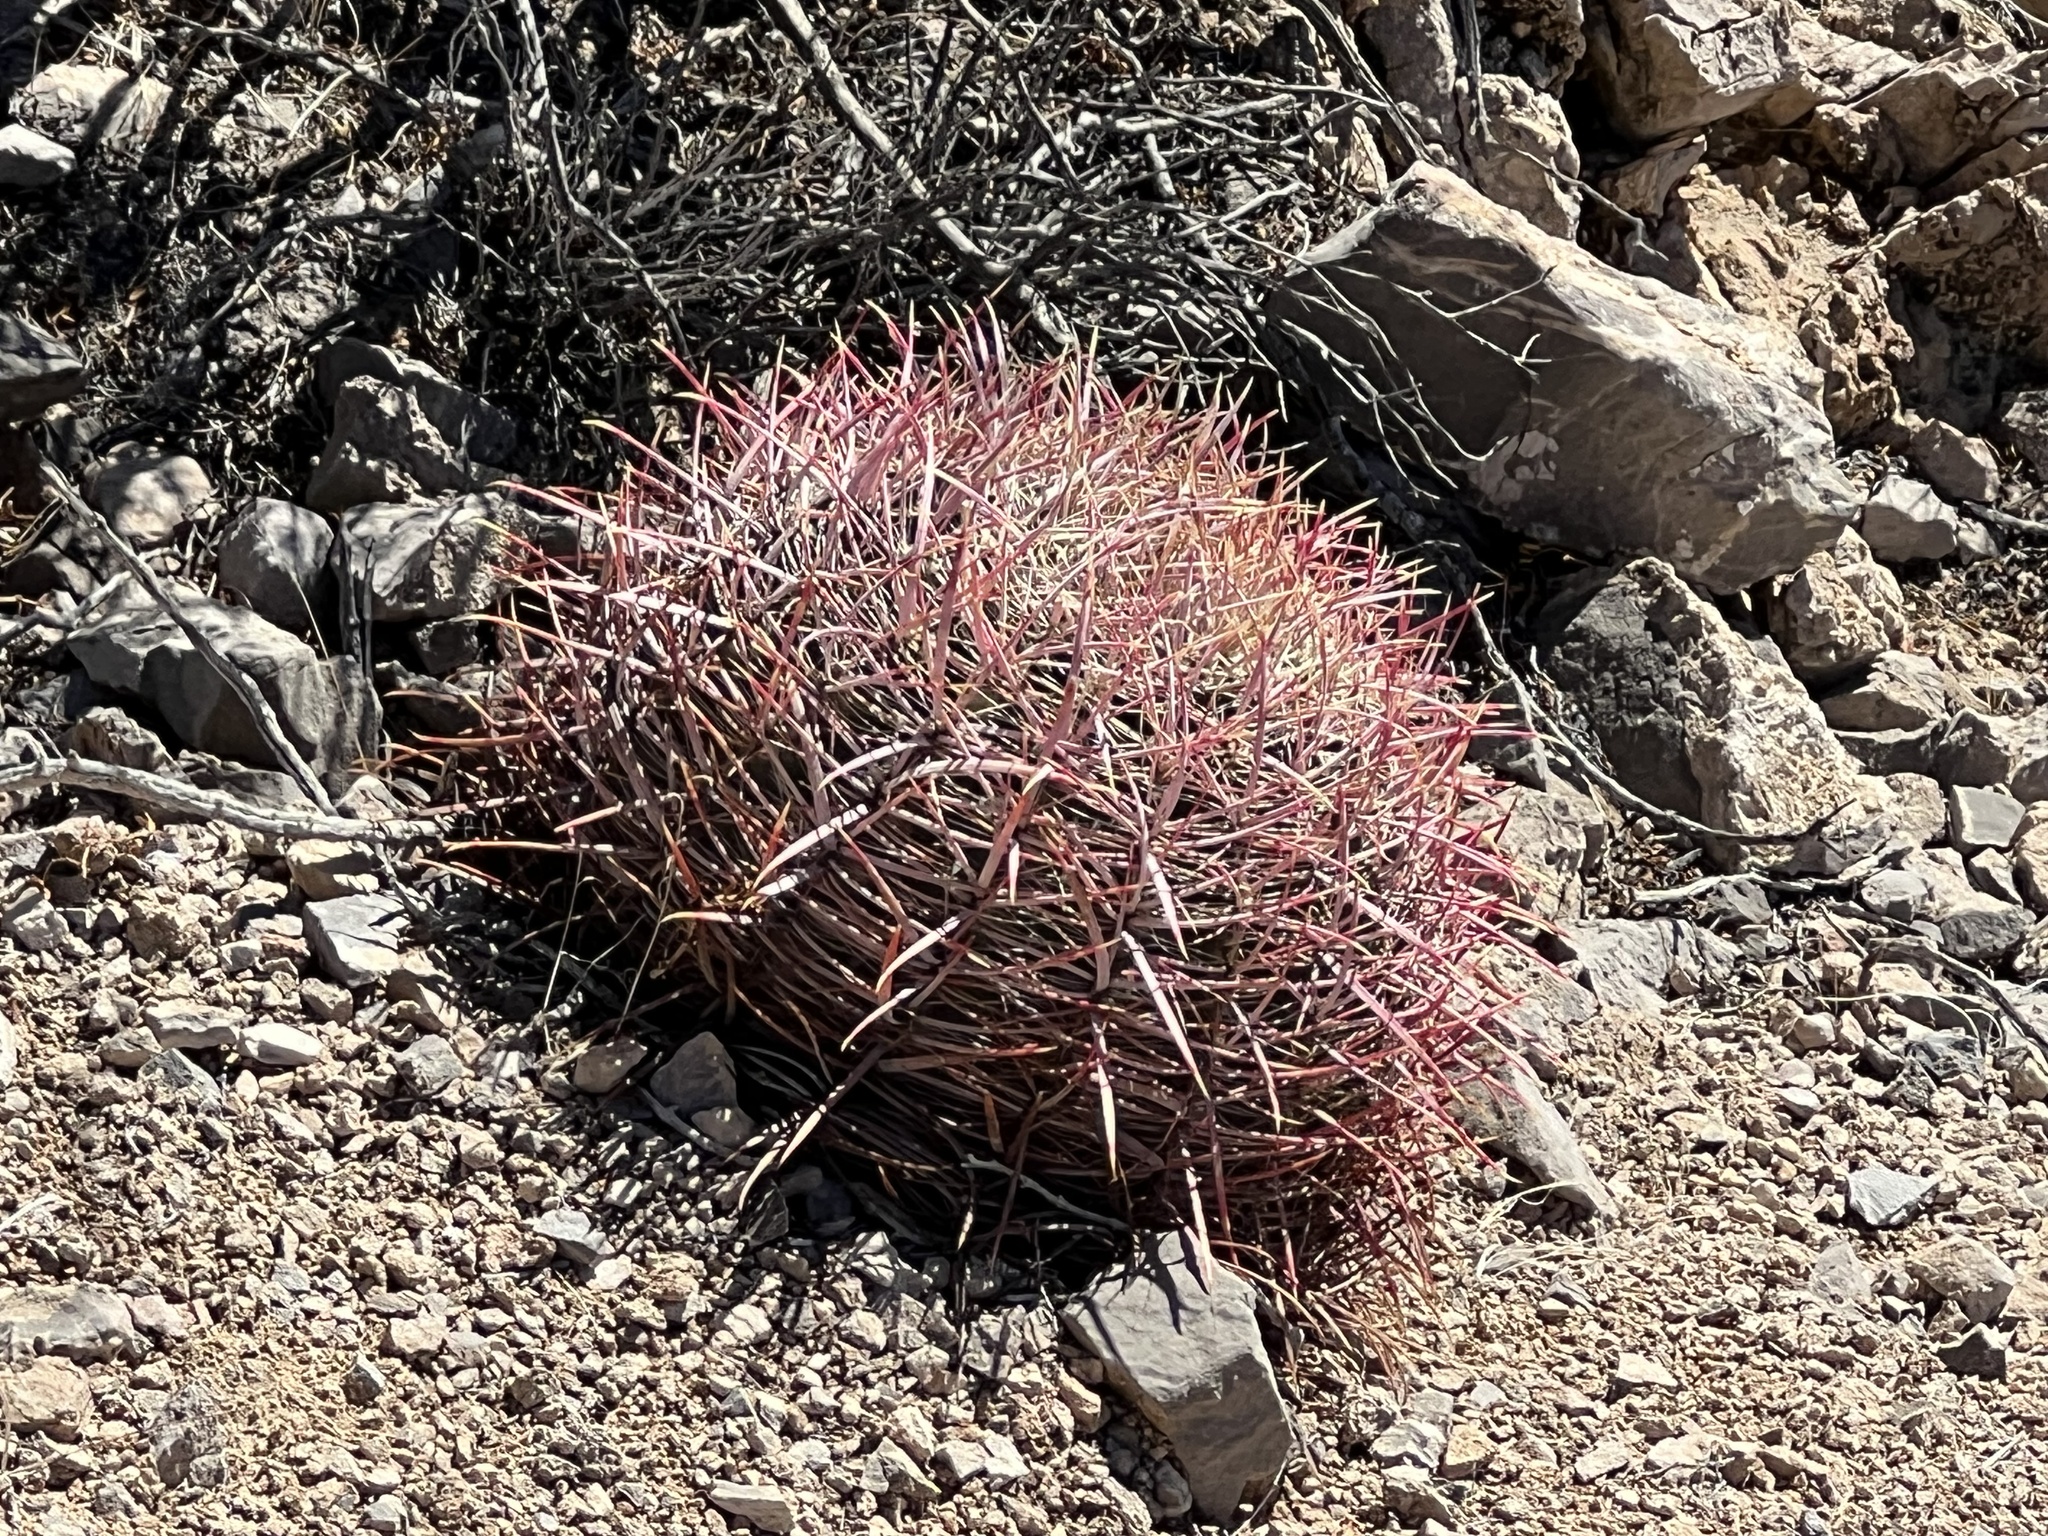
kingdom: Plantae
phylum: Tracheophyta
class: Magnoliopsida
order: Caryophyllales
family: Cactaceae
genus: Ferocactus
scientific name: Ferocactus cylindraceus
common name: California barrel cactus
